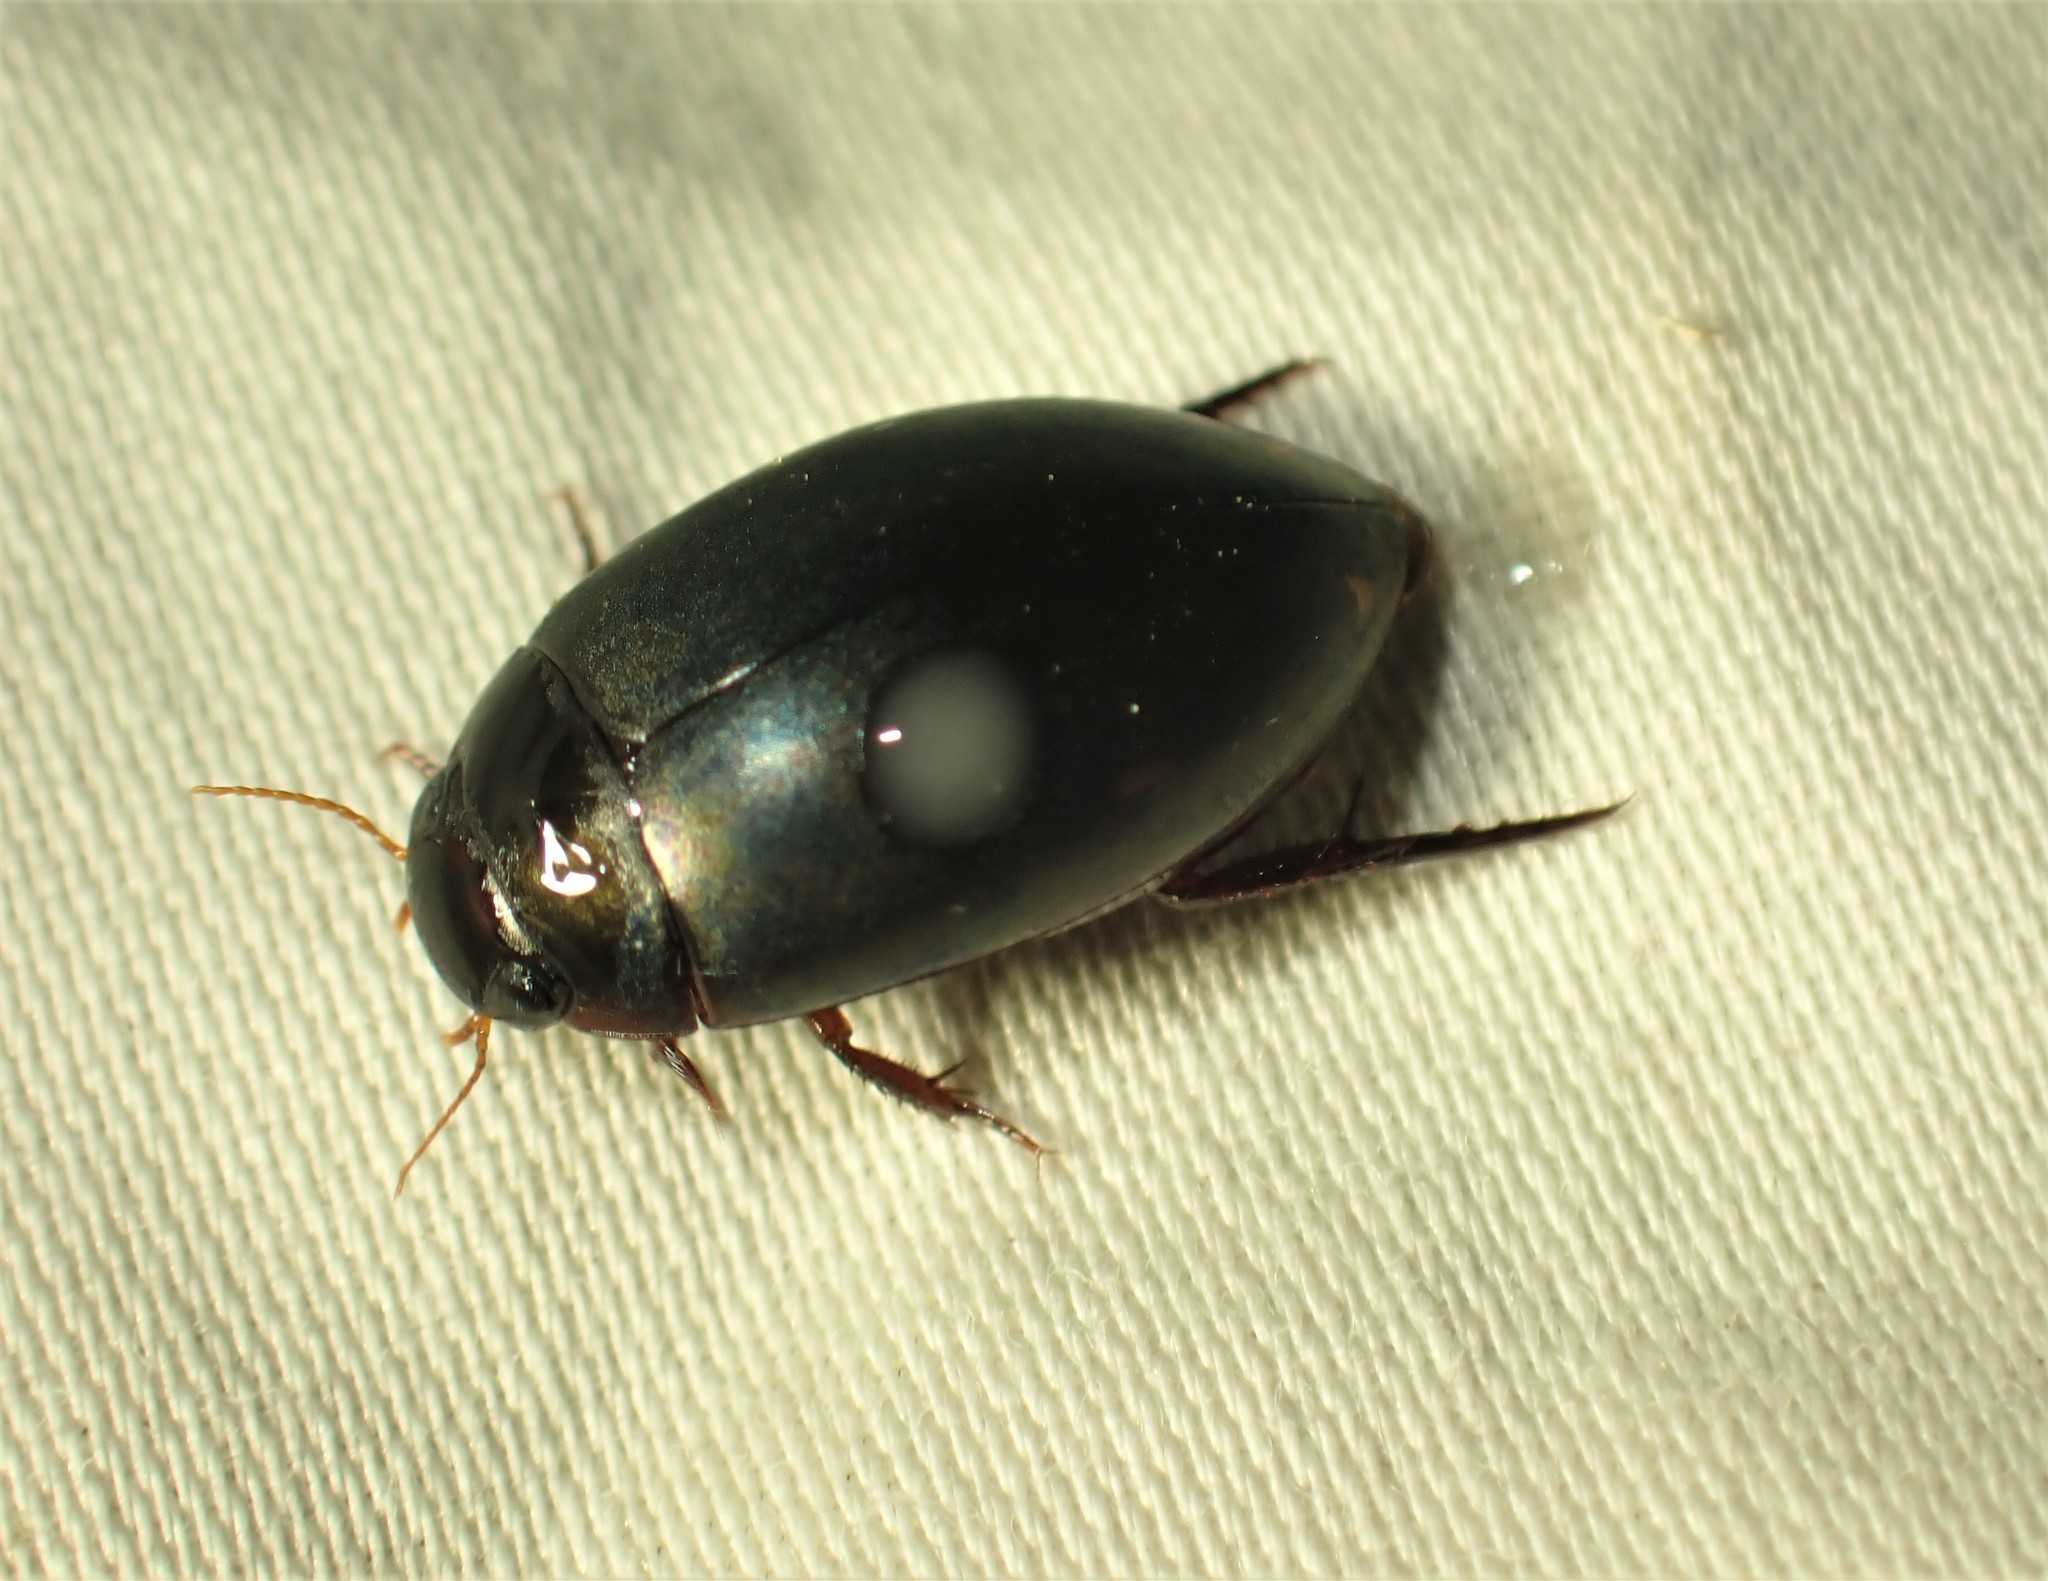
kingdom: Animalia
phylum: Arthropoda
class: Insecta
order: Coleoptera
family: Dytiscidae
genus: Ilybius
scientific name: Ilybius
